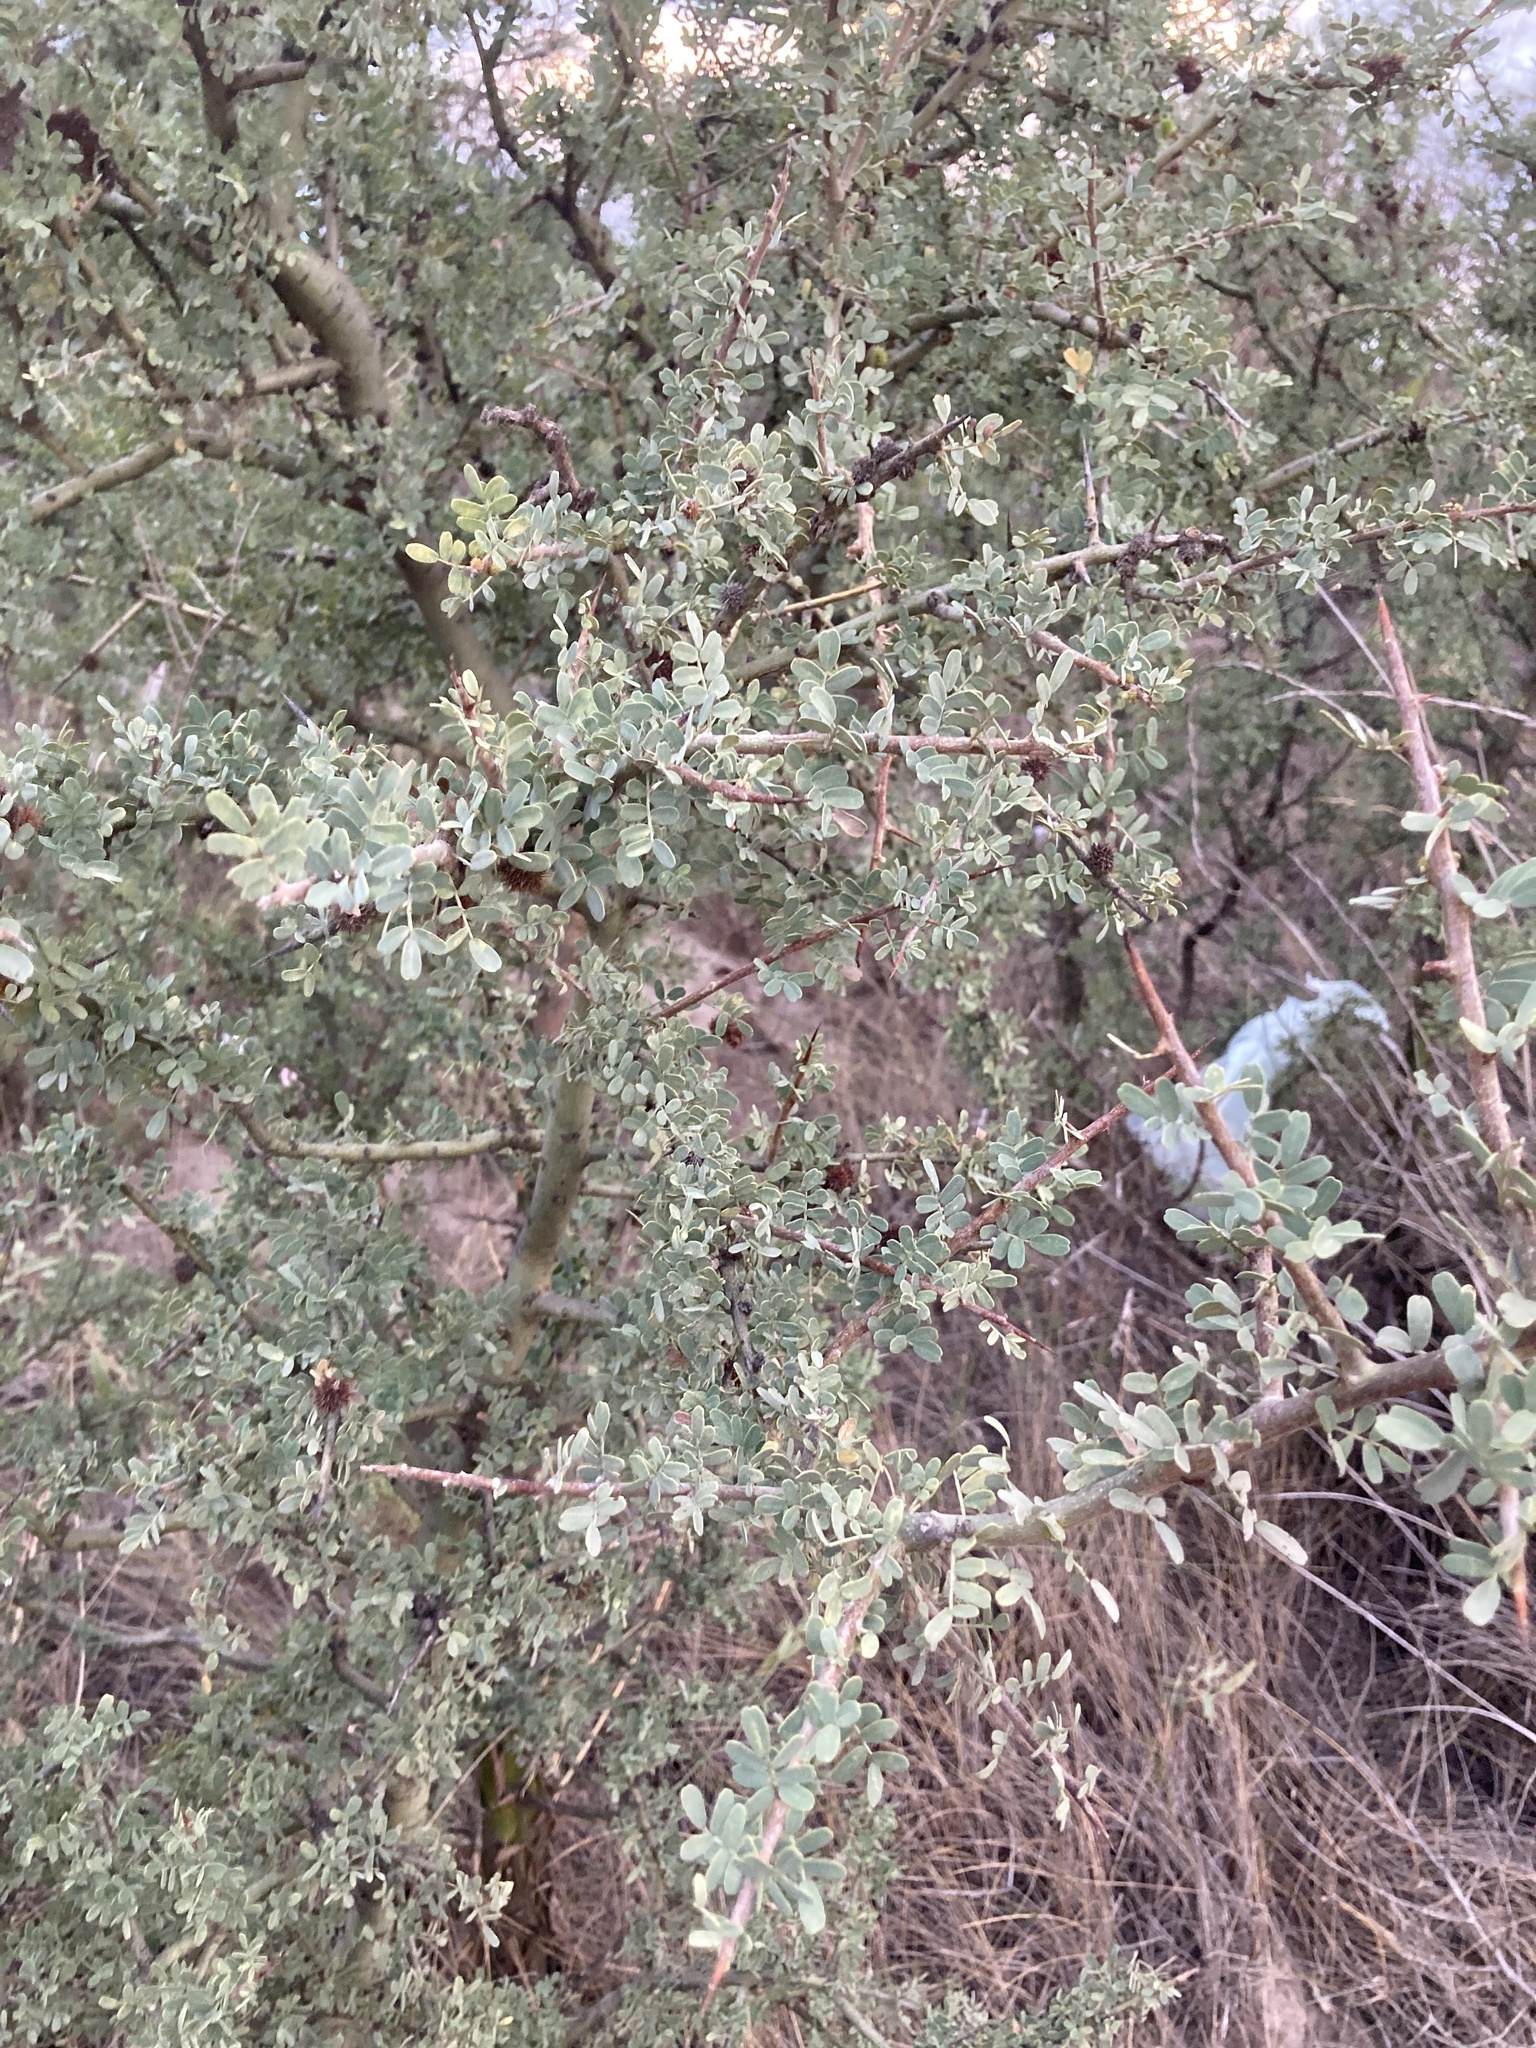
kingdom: Plantae
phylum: Tracheophyta
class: Magnoliopsida
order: Fabales
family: Fabaceae
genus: Geoffroea
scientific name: Geoffroea decorticans
